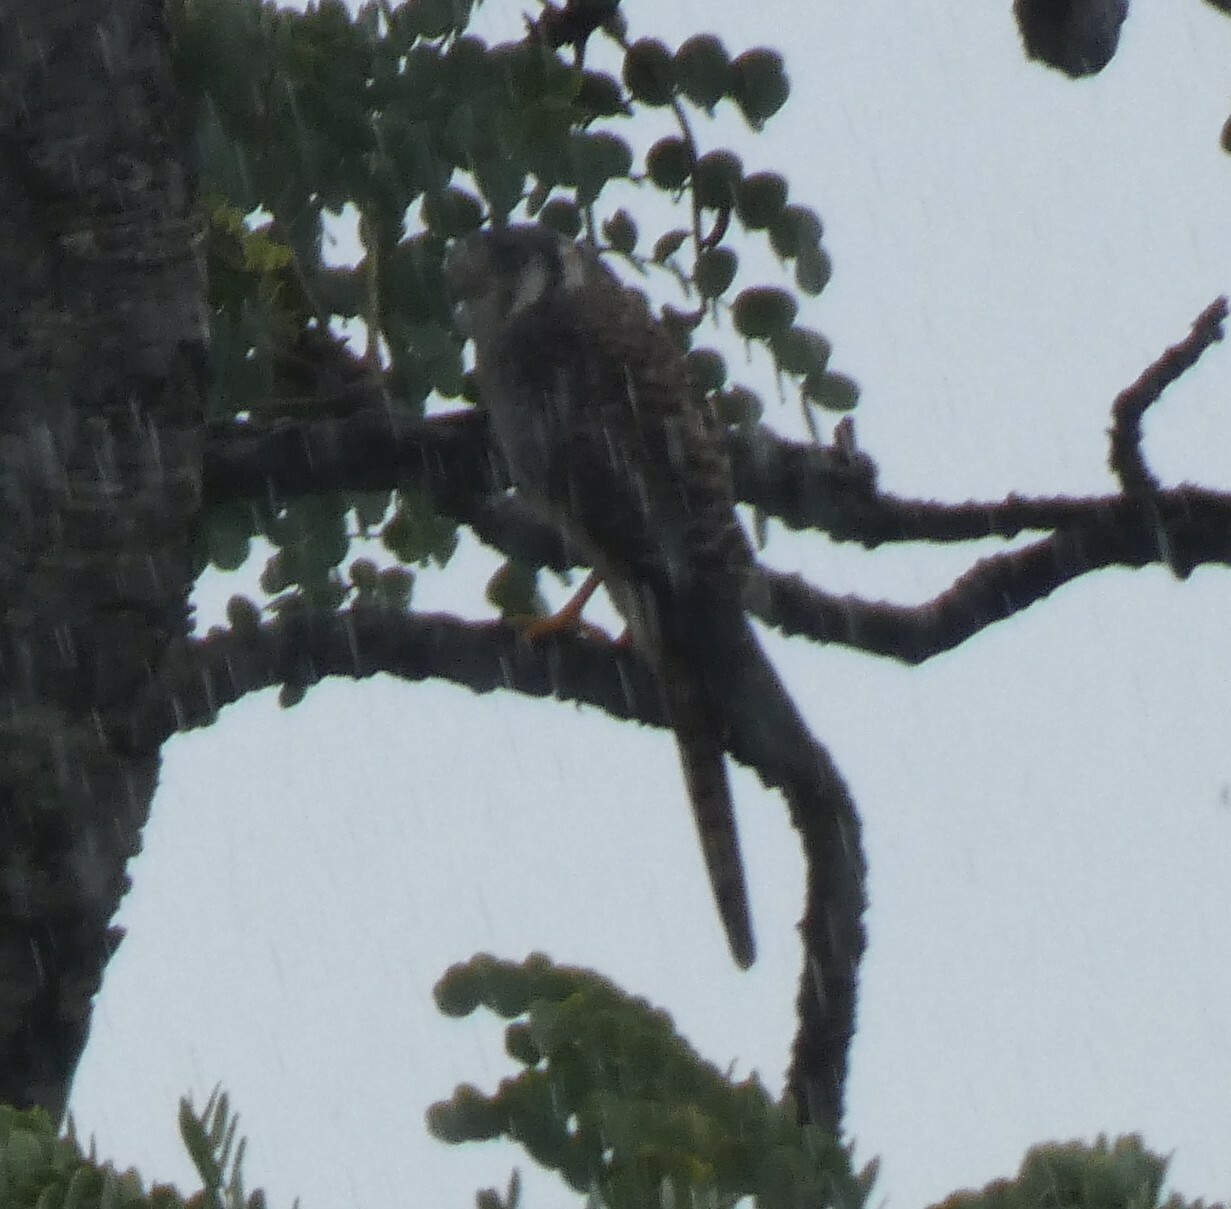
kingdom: Animalia
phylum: Chordata
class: Aves
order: Falconiformes
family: Falconidae
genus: Falco
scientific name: Falco sparverius
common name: American kestrel
